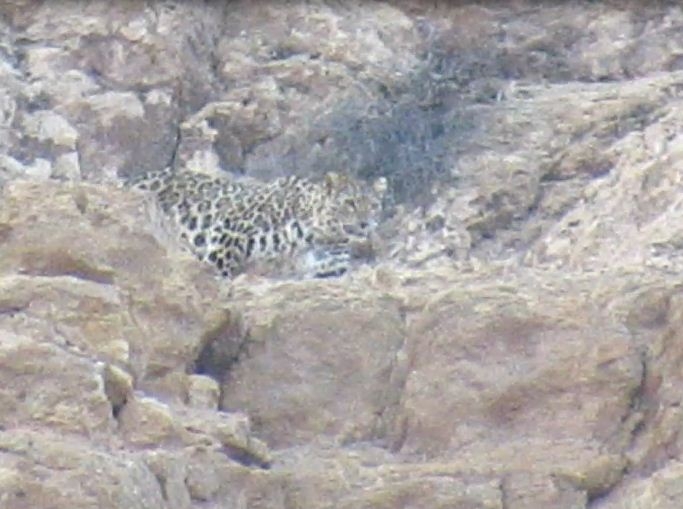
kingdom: Animalia
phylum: Chordata
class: Mammalia
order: Carnivora
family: Felidae
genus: Panthera
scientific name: Panthera pardus
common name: Leopard
